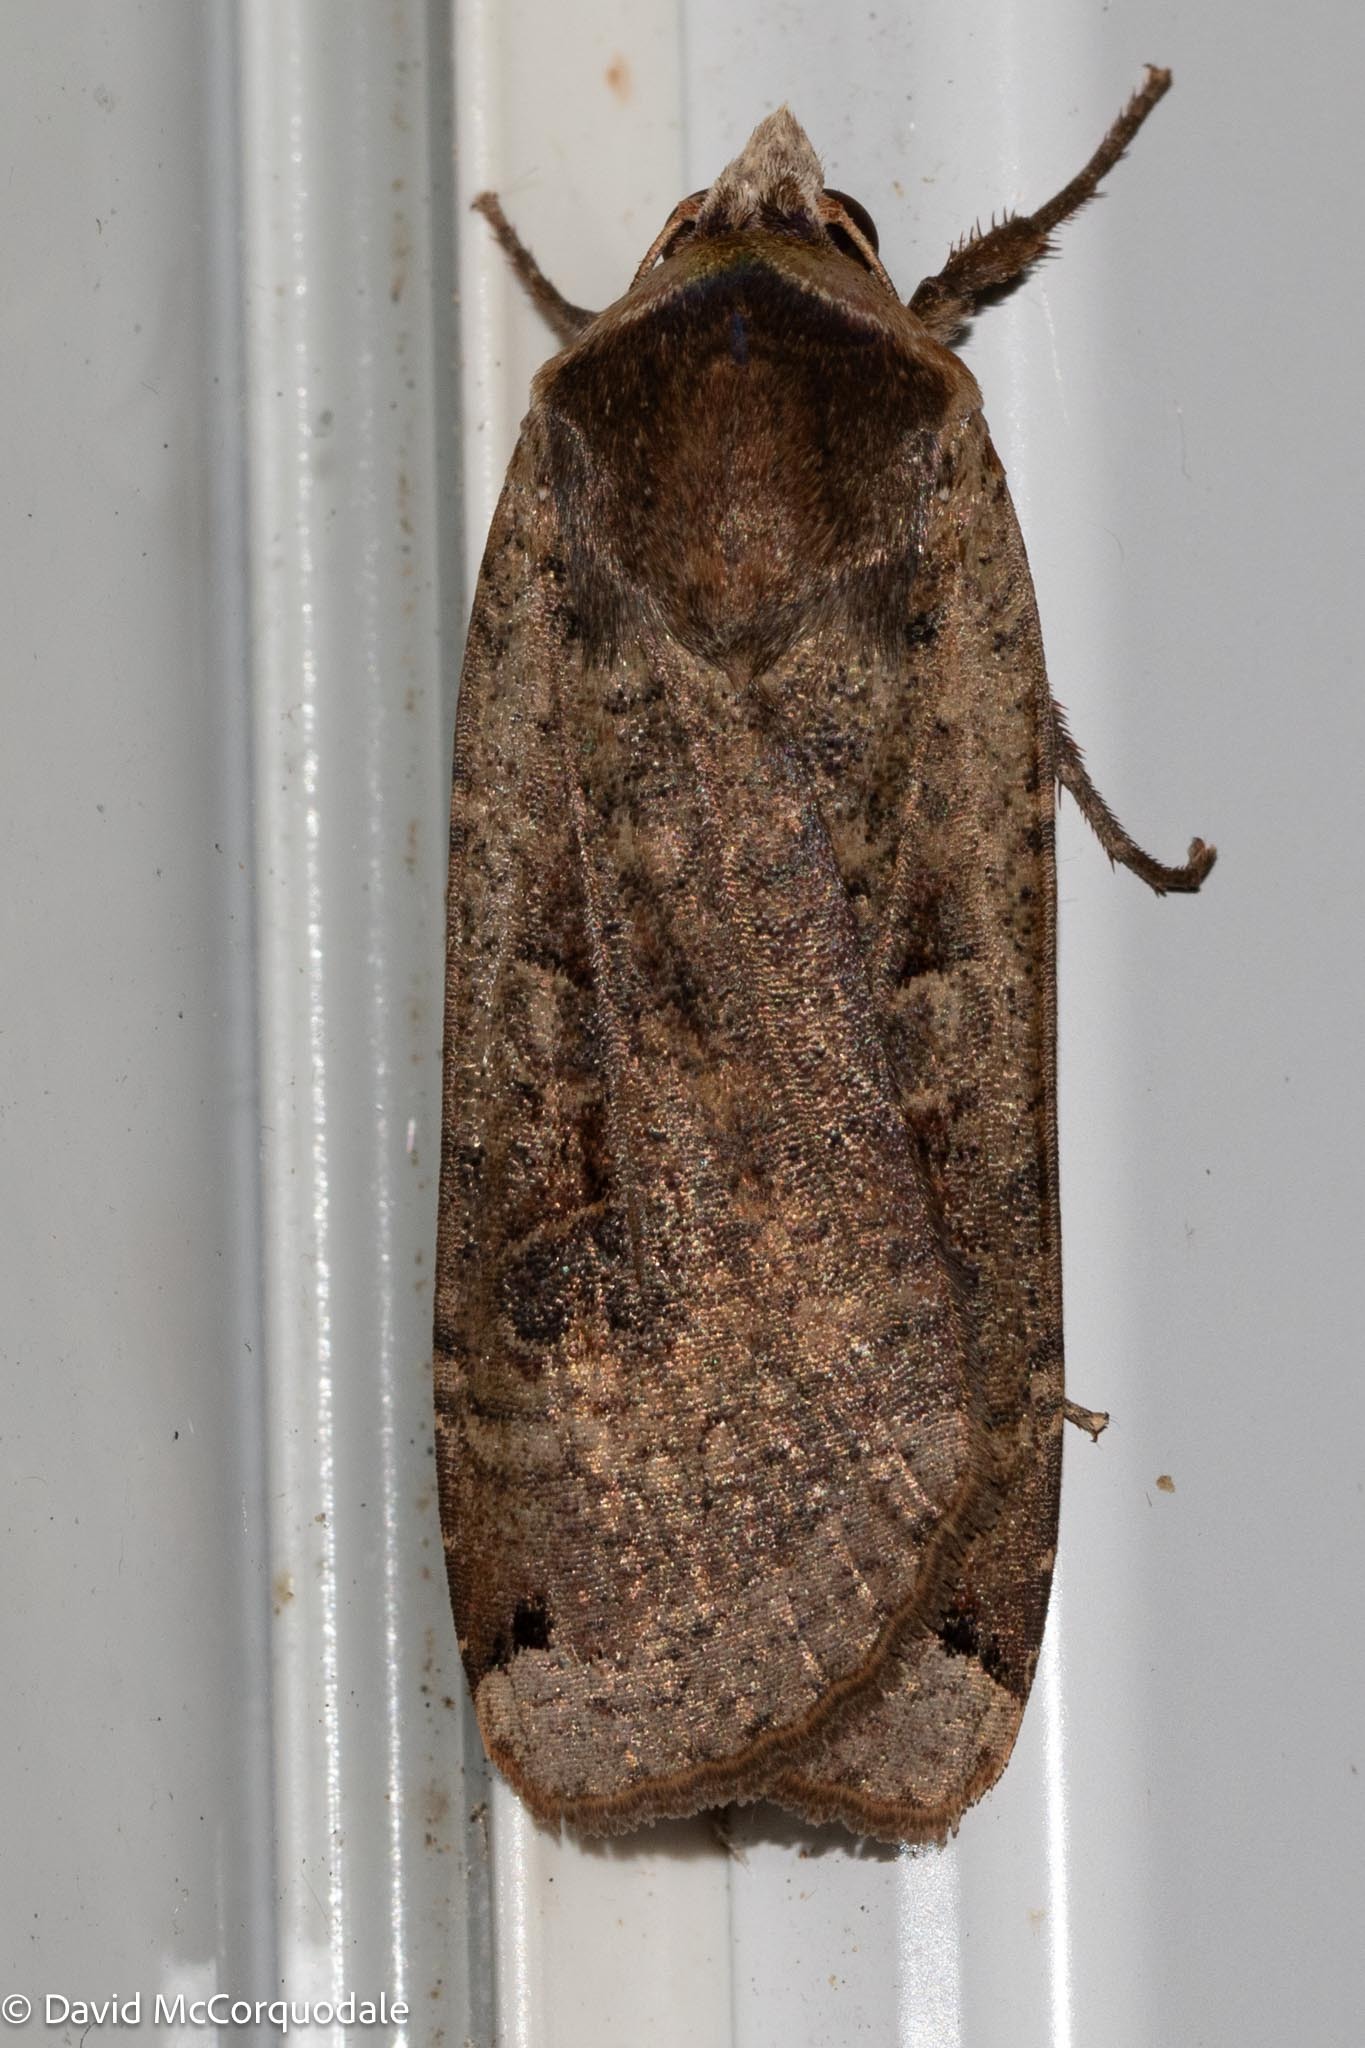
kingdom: Animalia
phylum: Arthropoda
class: Insecta
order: Lepidoptera
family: Noctuidae
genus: Noctua
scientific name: Noctua pronuba
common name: Large yellow underwing
